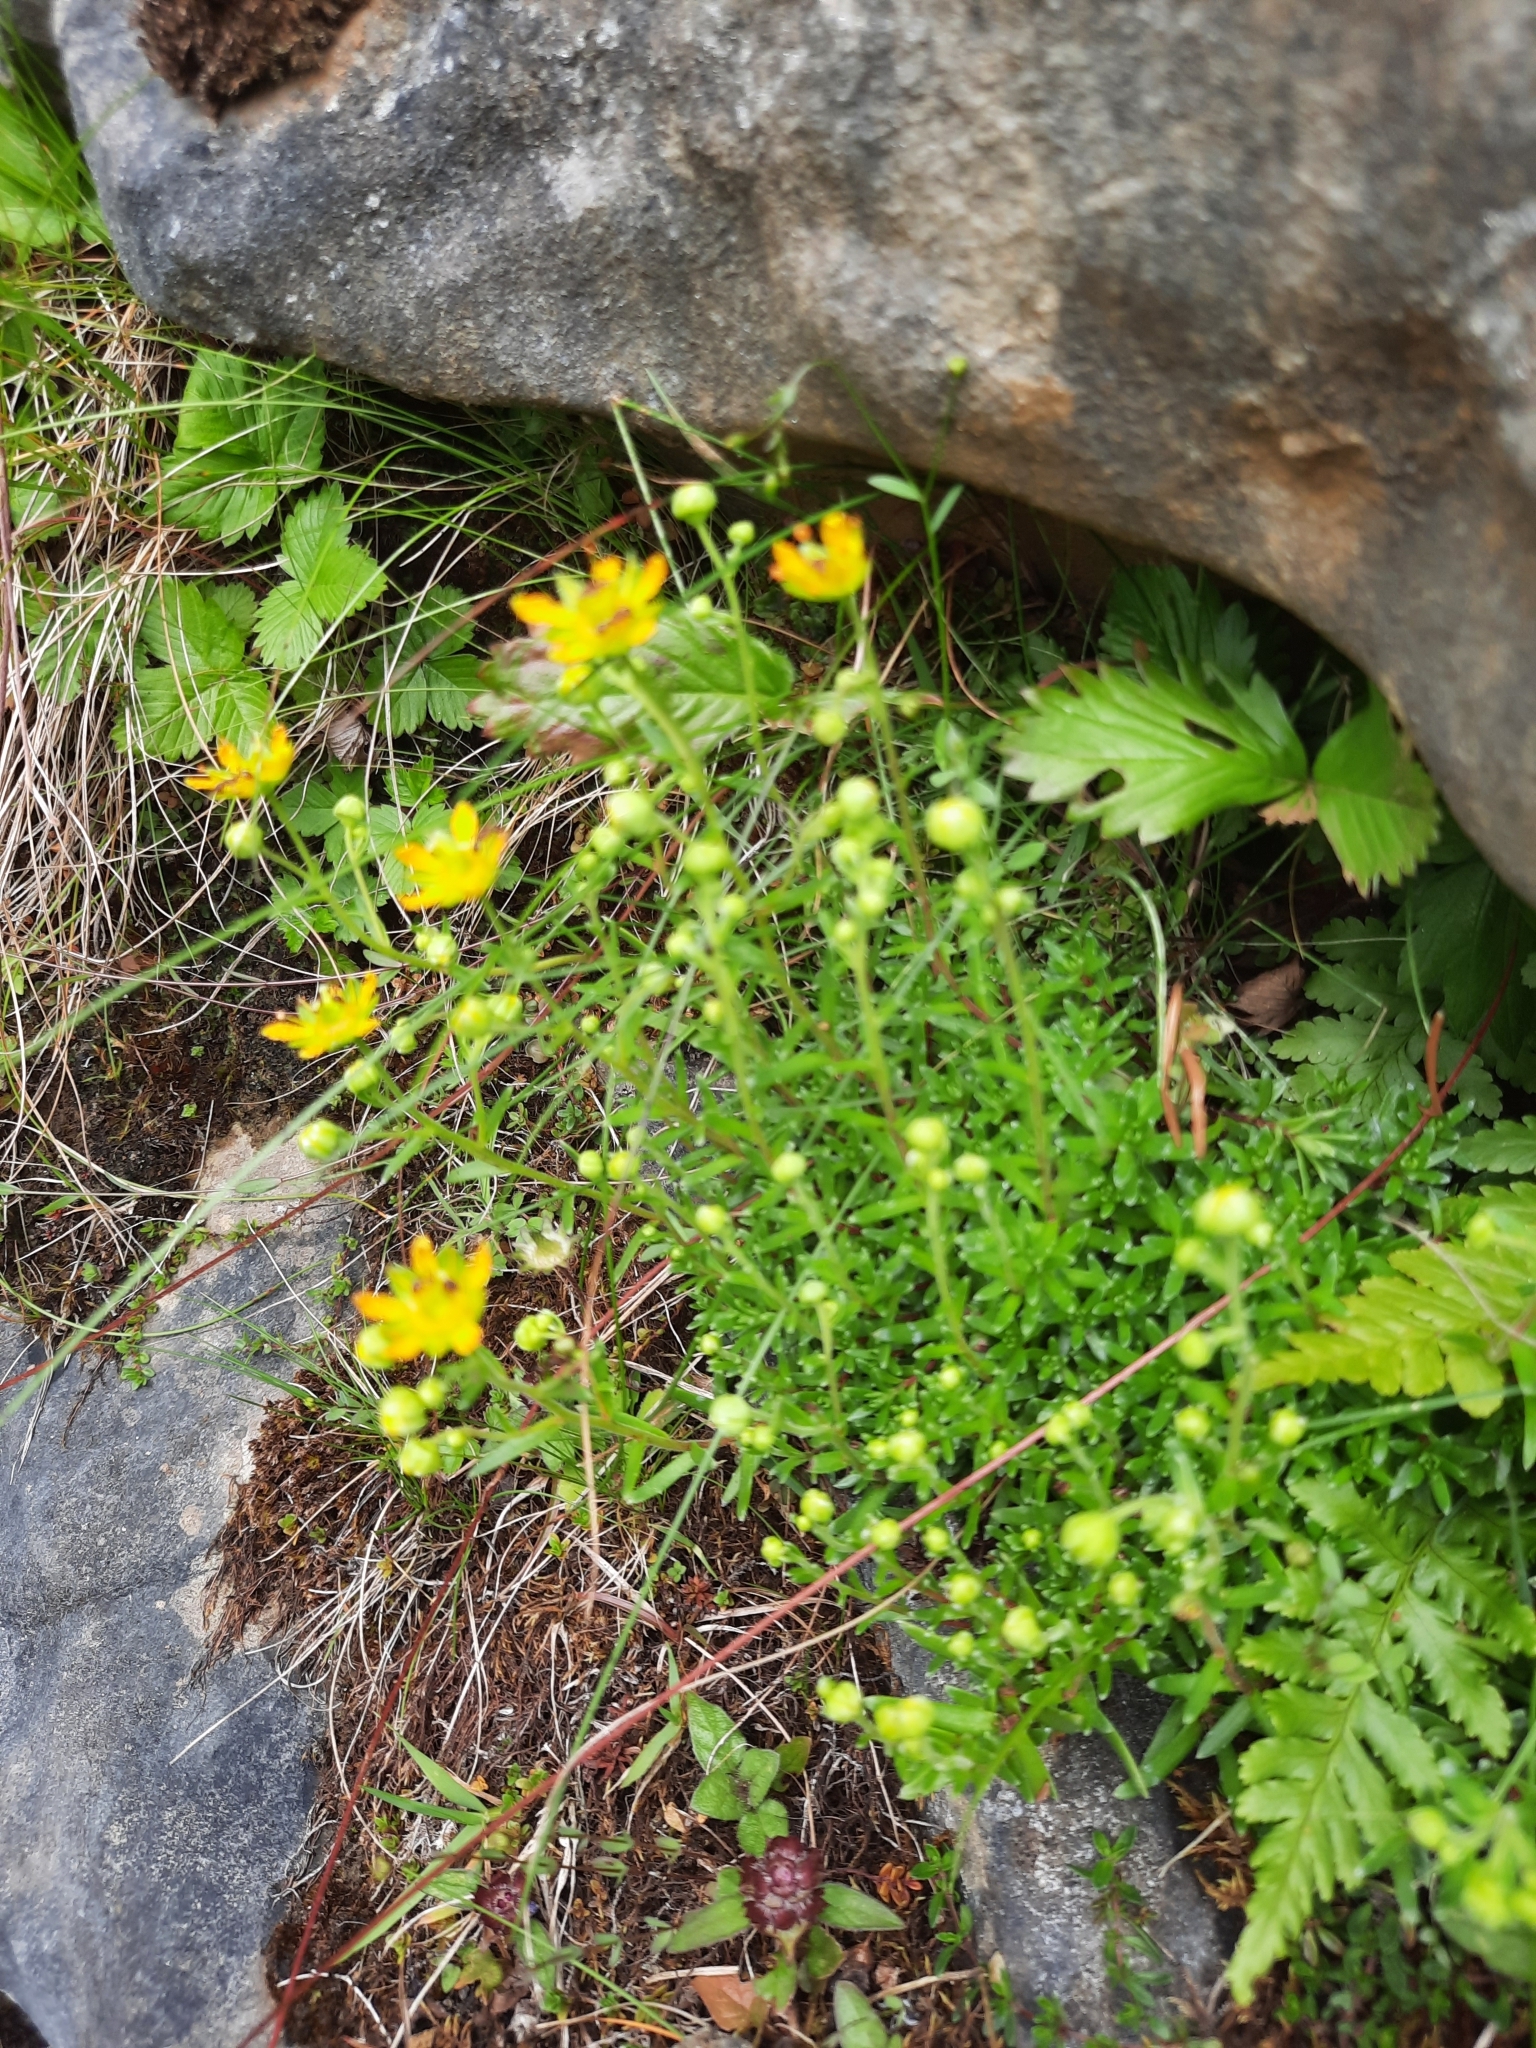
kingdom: Plantae
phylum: Tracheophyta
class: Magnoliopsida
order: Saxifragales
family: Saxifragaceae
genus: Saxifraga
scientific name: Saxifraga aizoides
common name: Yellow mountain saxifrage
